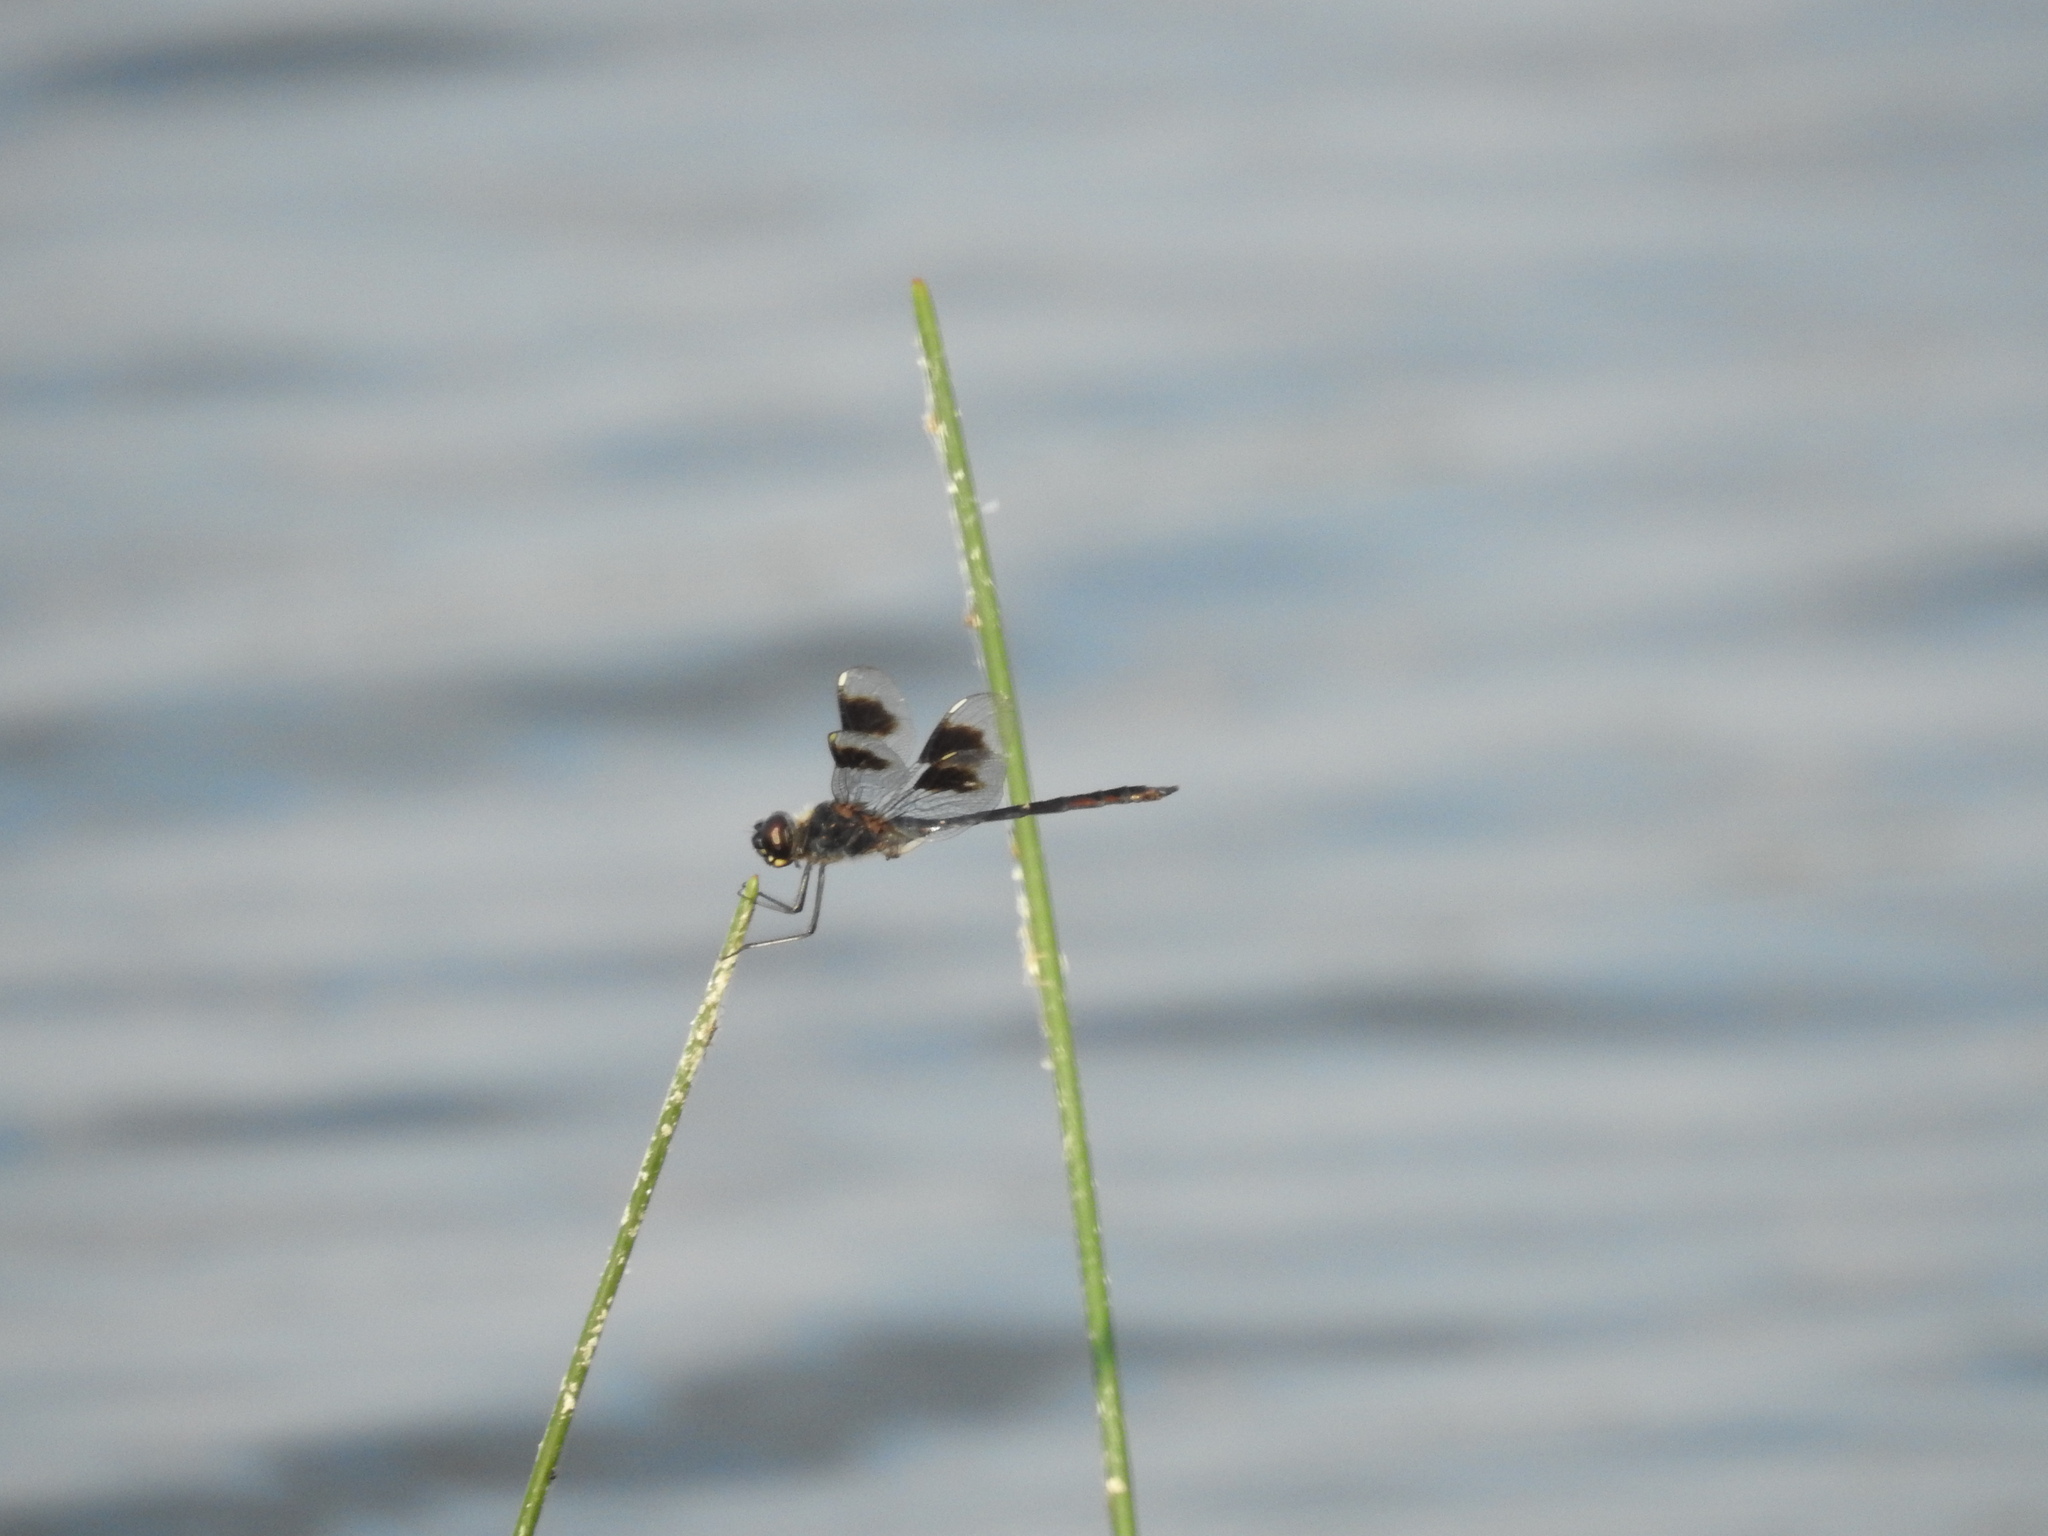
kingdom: Animalia
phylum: Arthropoda
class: Insecta
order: Odonata
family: Libellulidae
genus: Brachymesia
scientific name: Brachymesia gravida
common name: Four-spotted pennant
